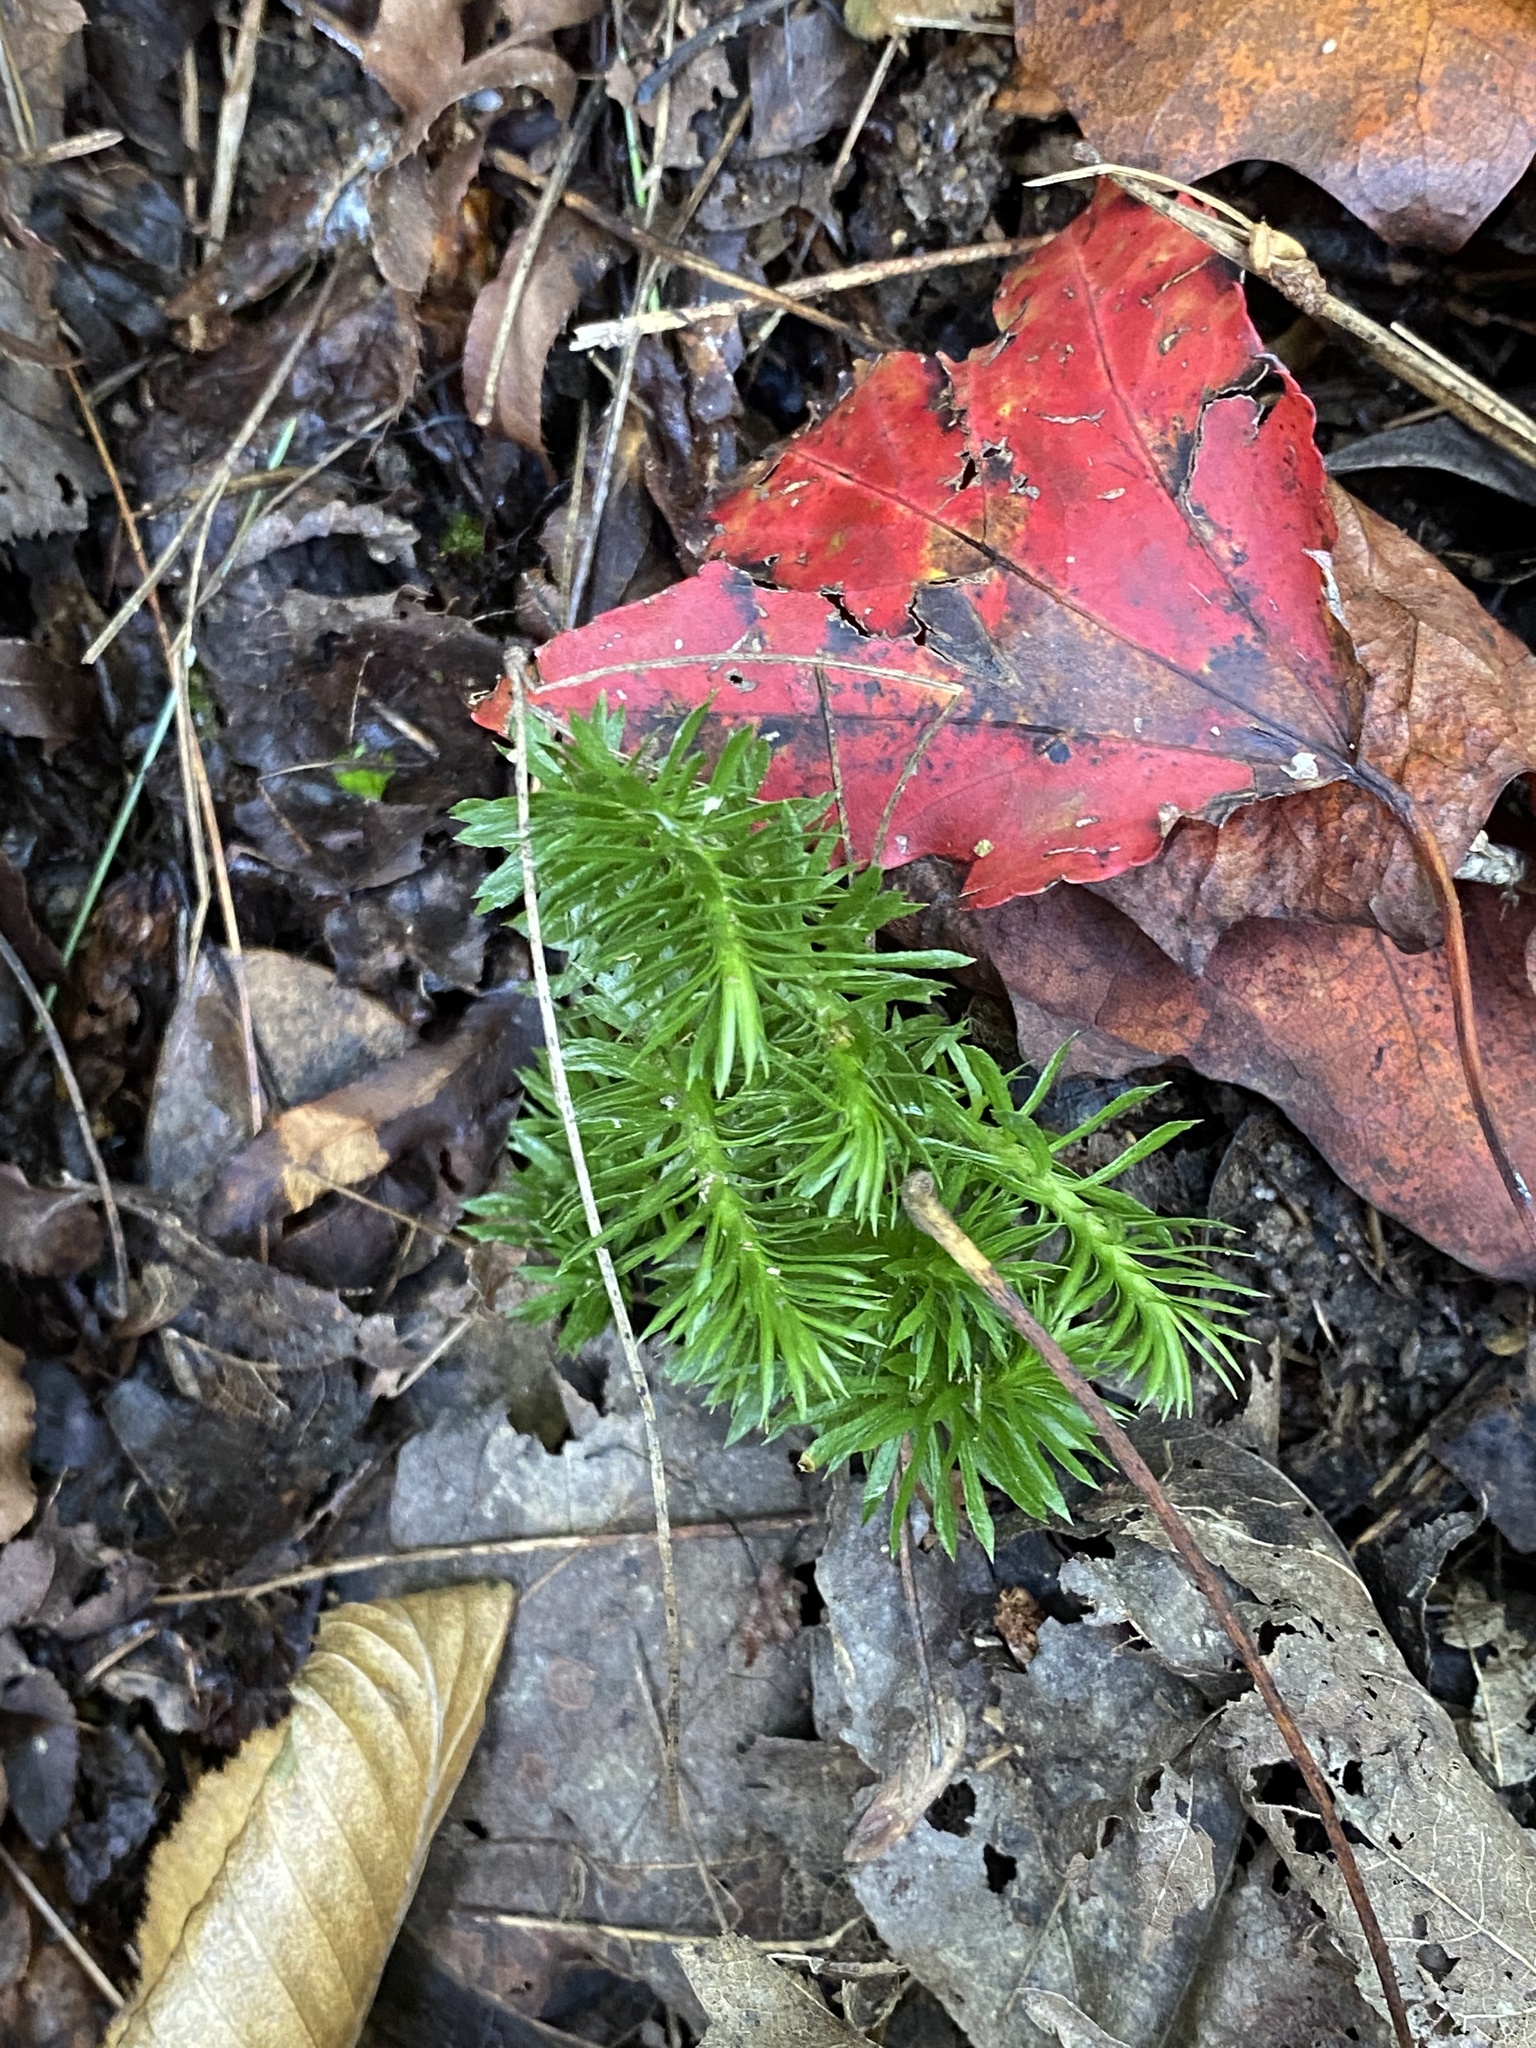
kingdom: Plantae
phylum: Tracheophyta
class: Lycopodiopsida
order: Lycopodiales
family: Lycopodiaceae
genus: Huperzia
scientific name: Huperzia lucidula
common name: Shining clubmoss
